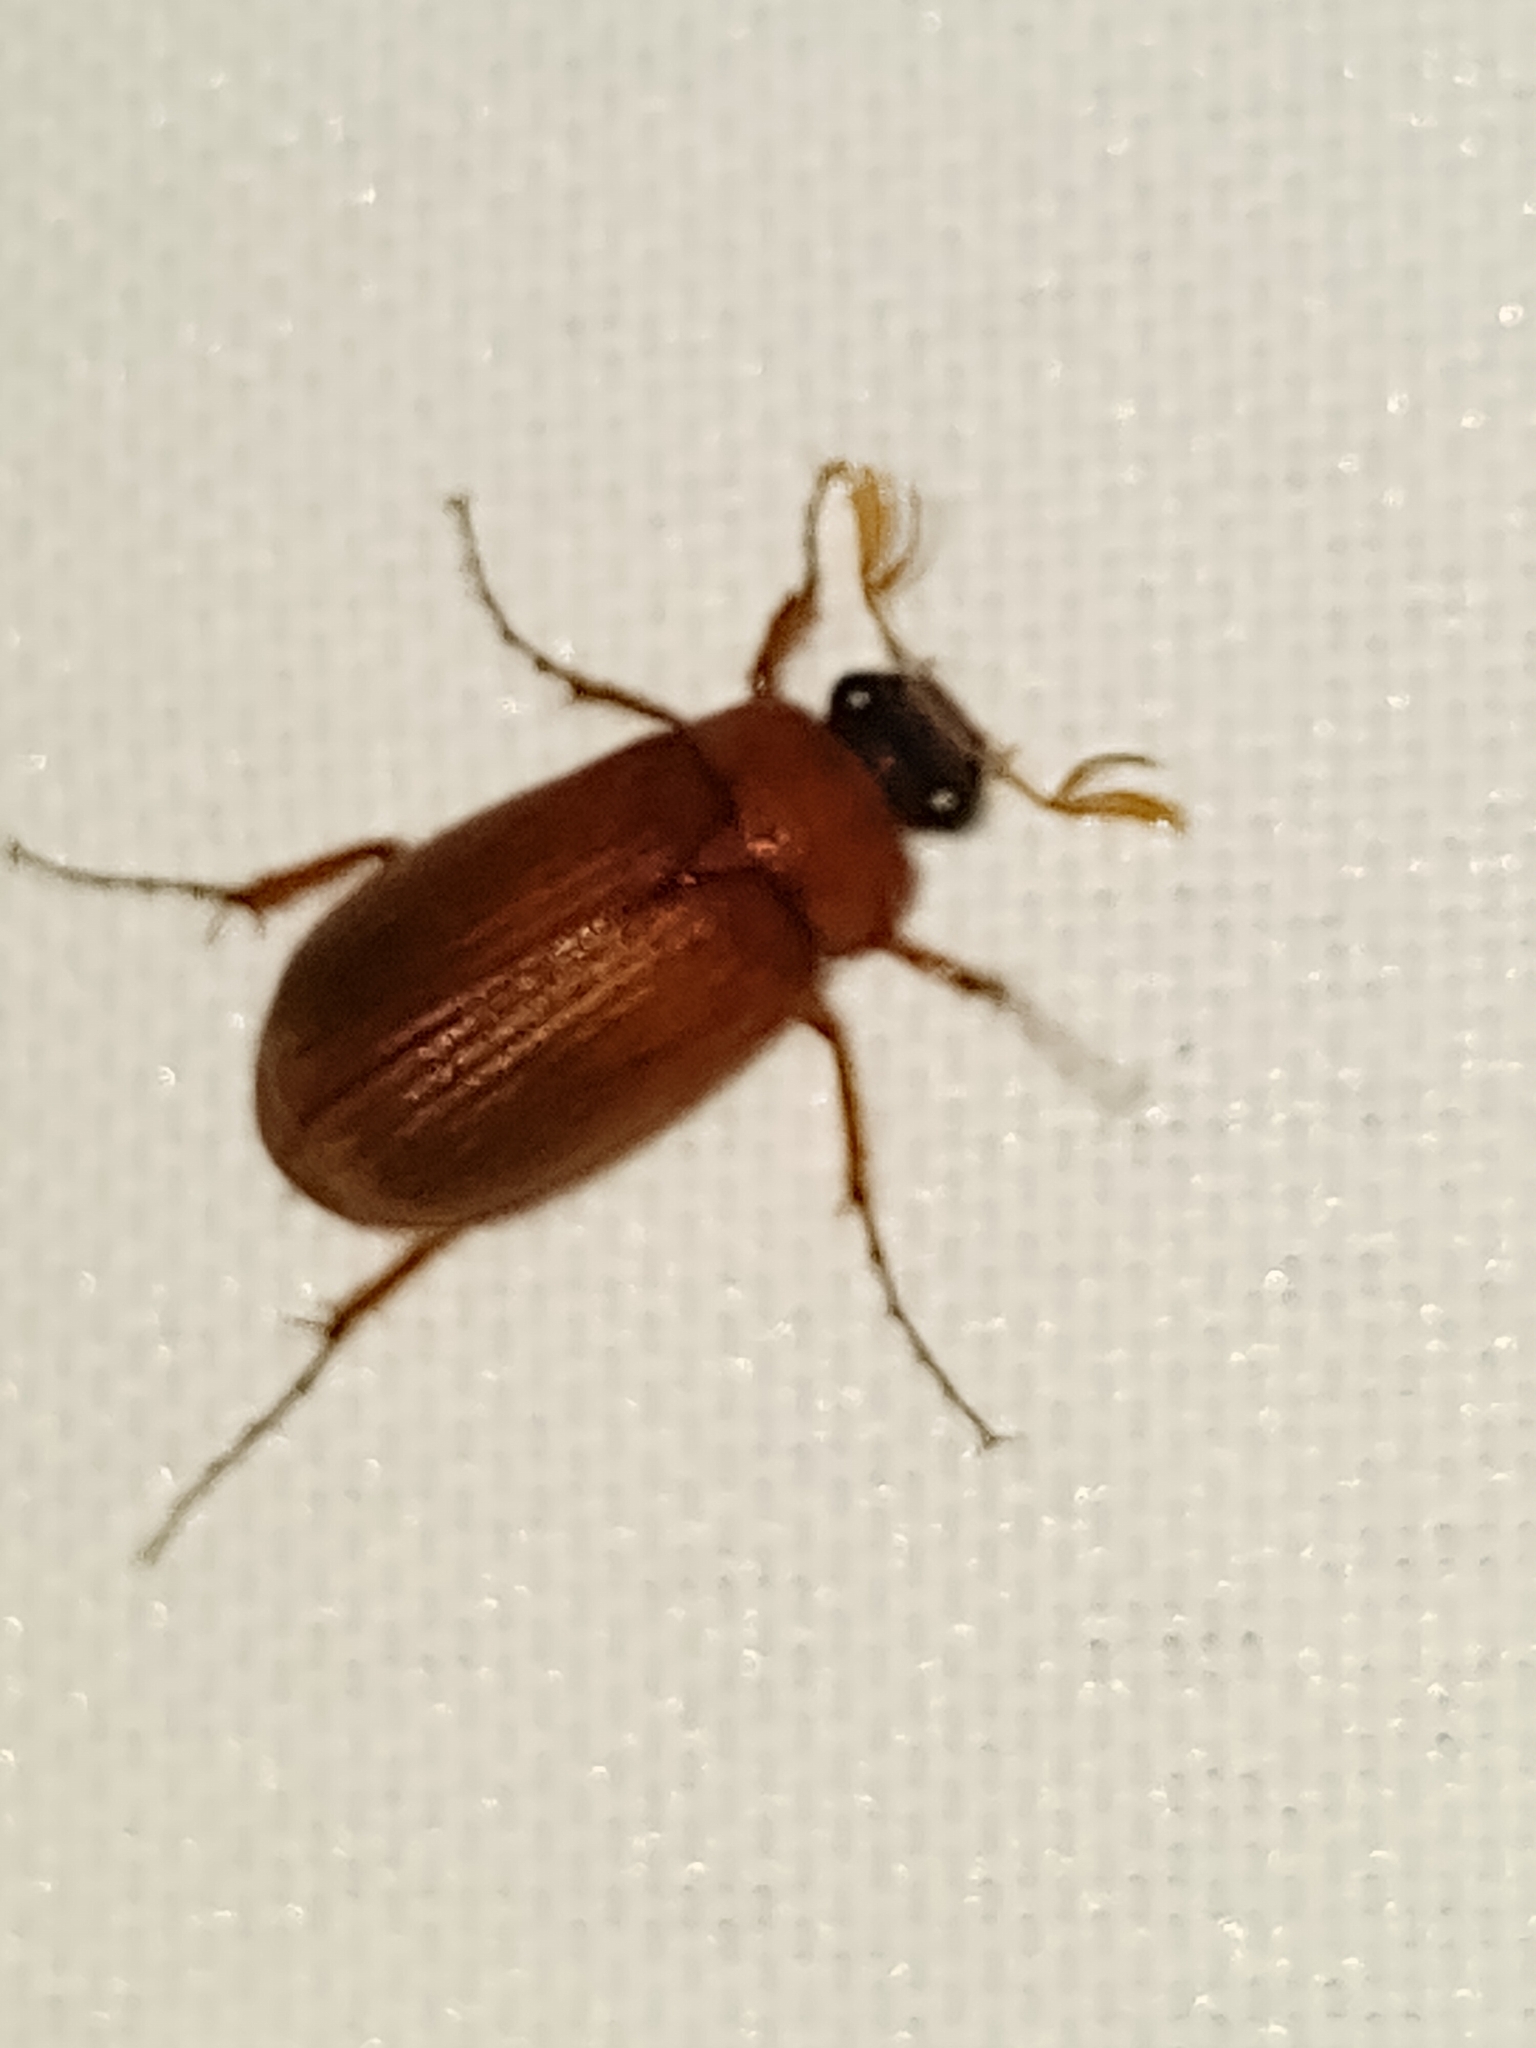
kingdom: Animalia
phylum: Arthropoda
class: Insecta
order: Coleoptera
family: Scarabaeidae
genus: Serica
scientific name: Serica brunnea
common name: Brown chafer
